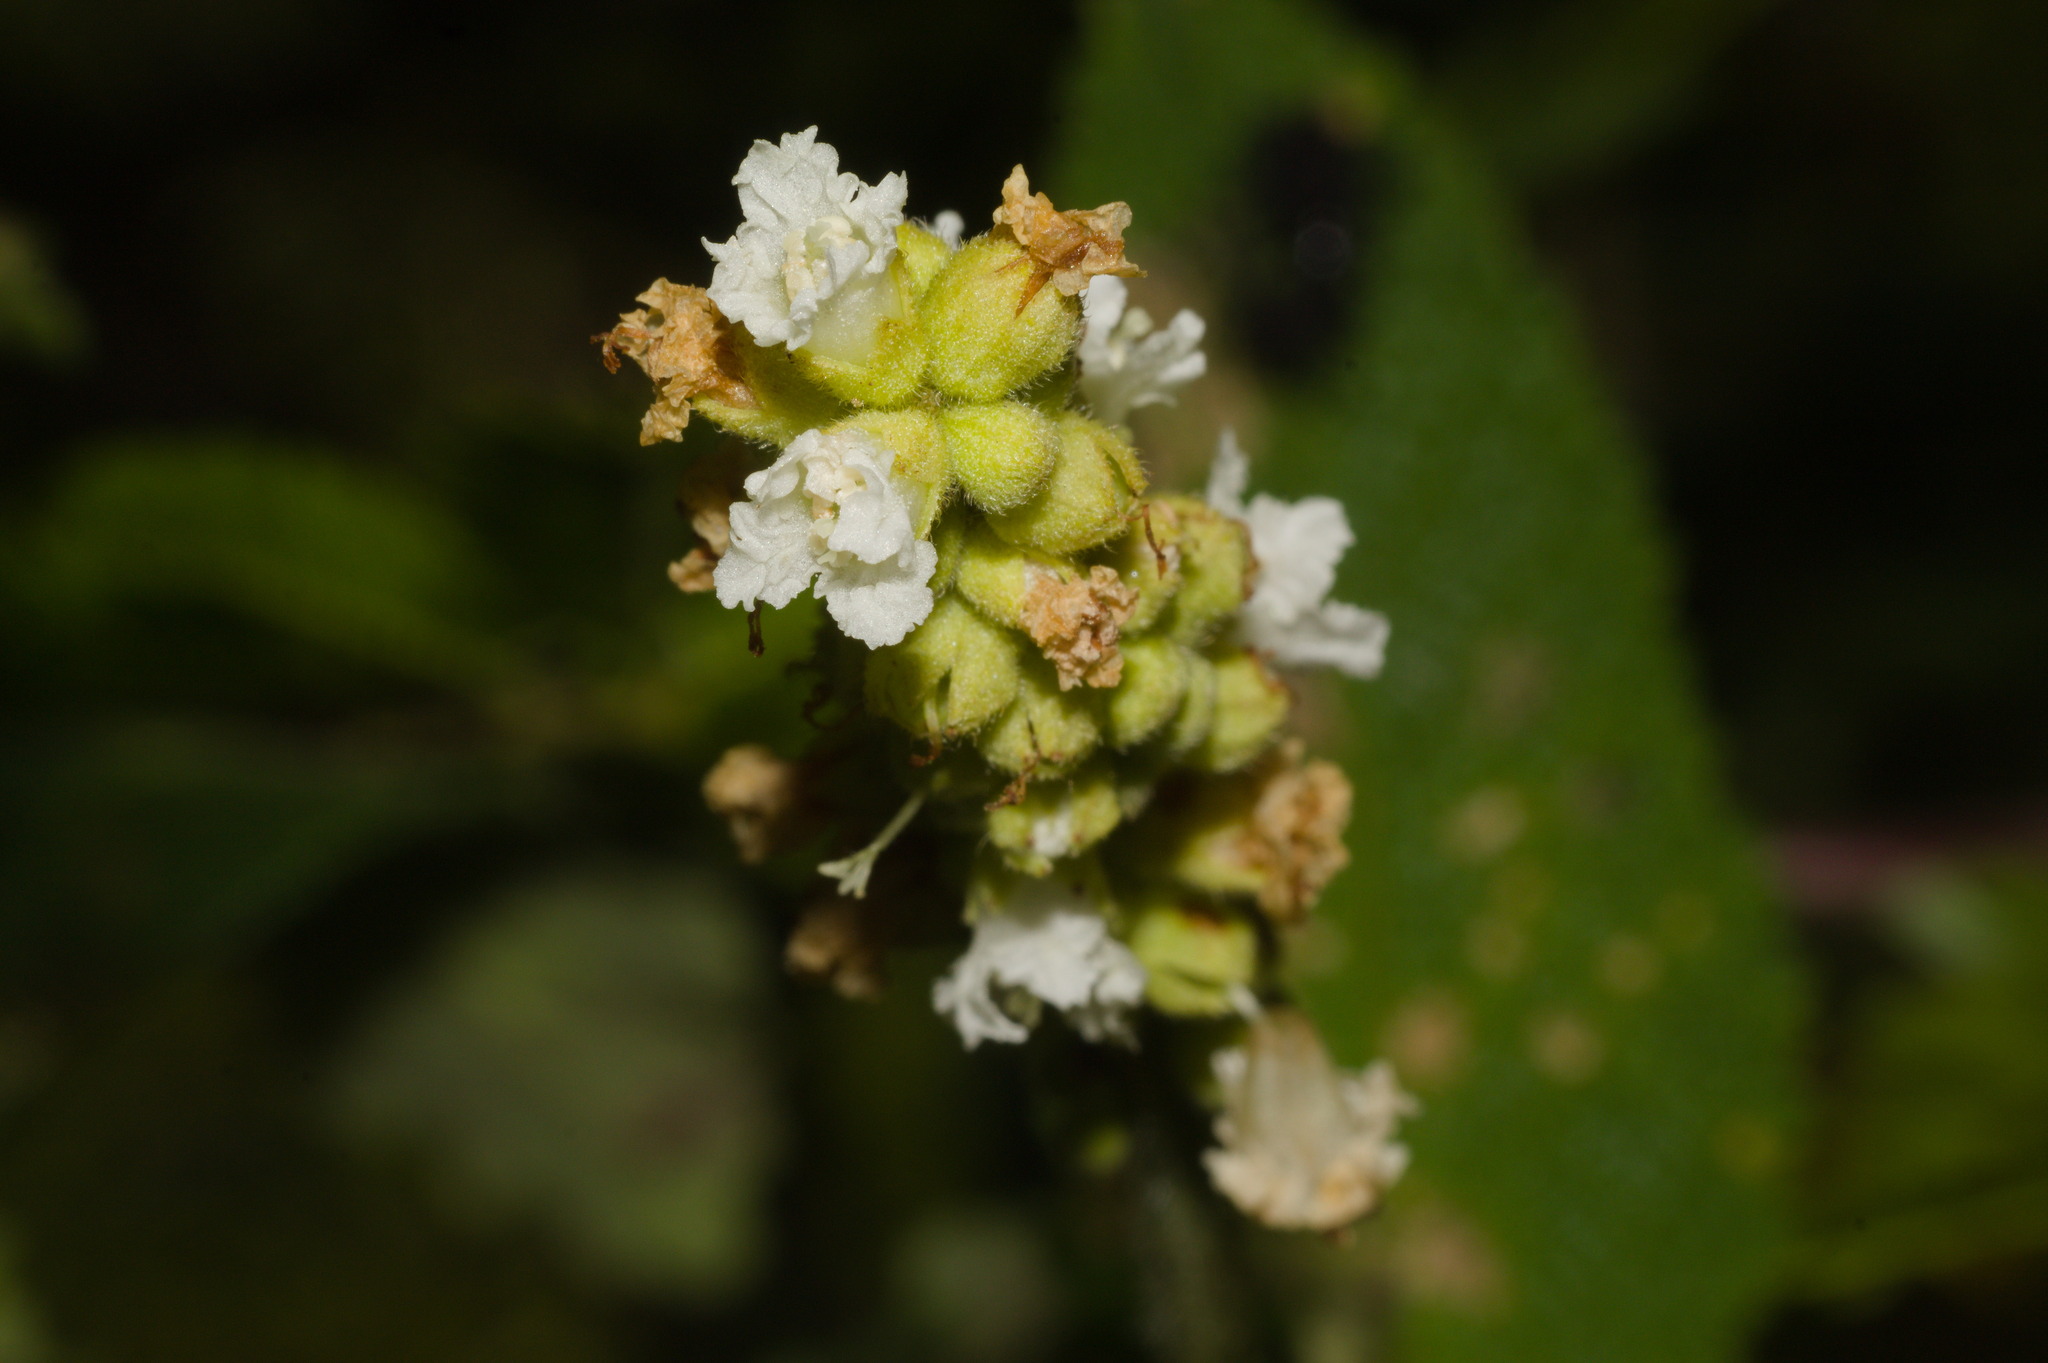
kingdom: Plantae
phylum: Tracheophyta
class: Magnoliopsida
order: Boraginales
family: Cordiaceae
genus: Varronia
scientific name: Varronia curassavica
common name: Black sage
